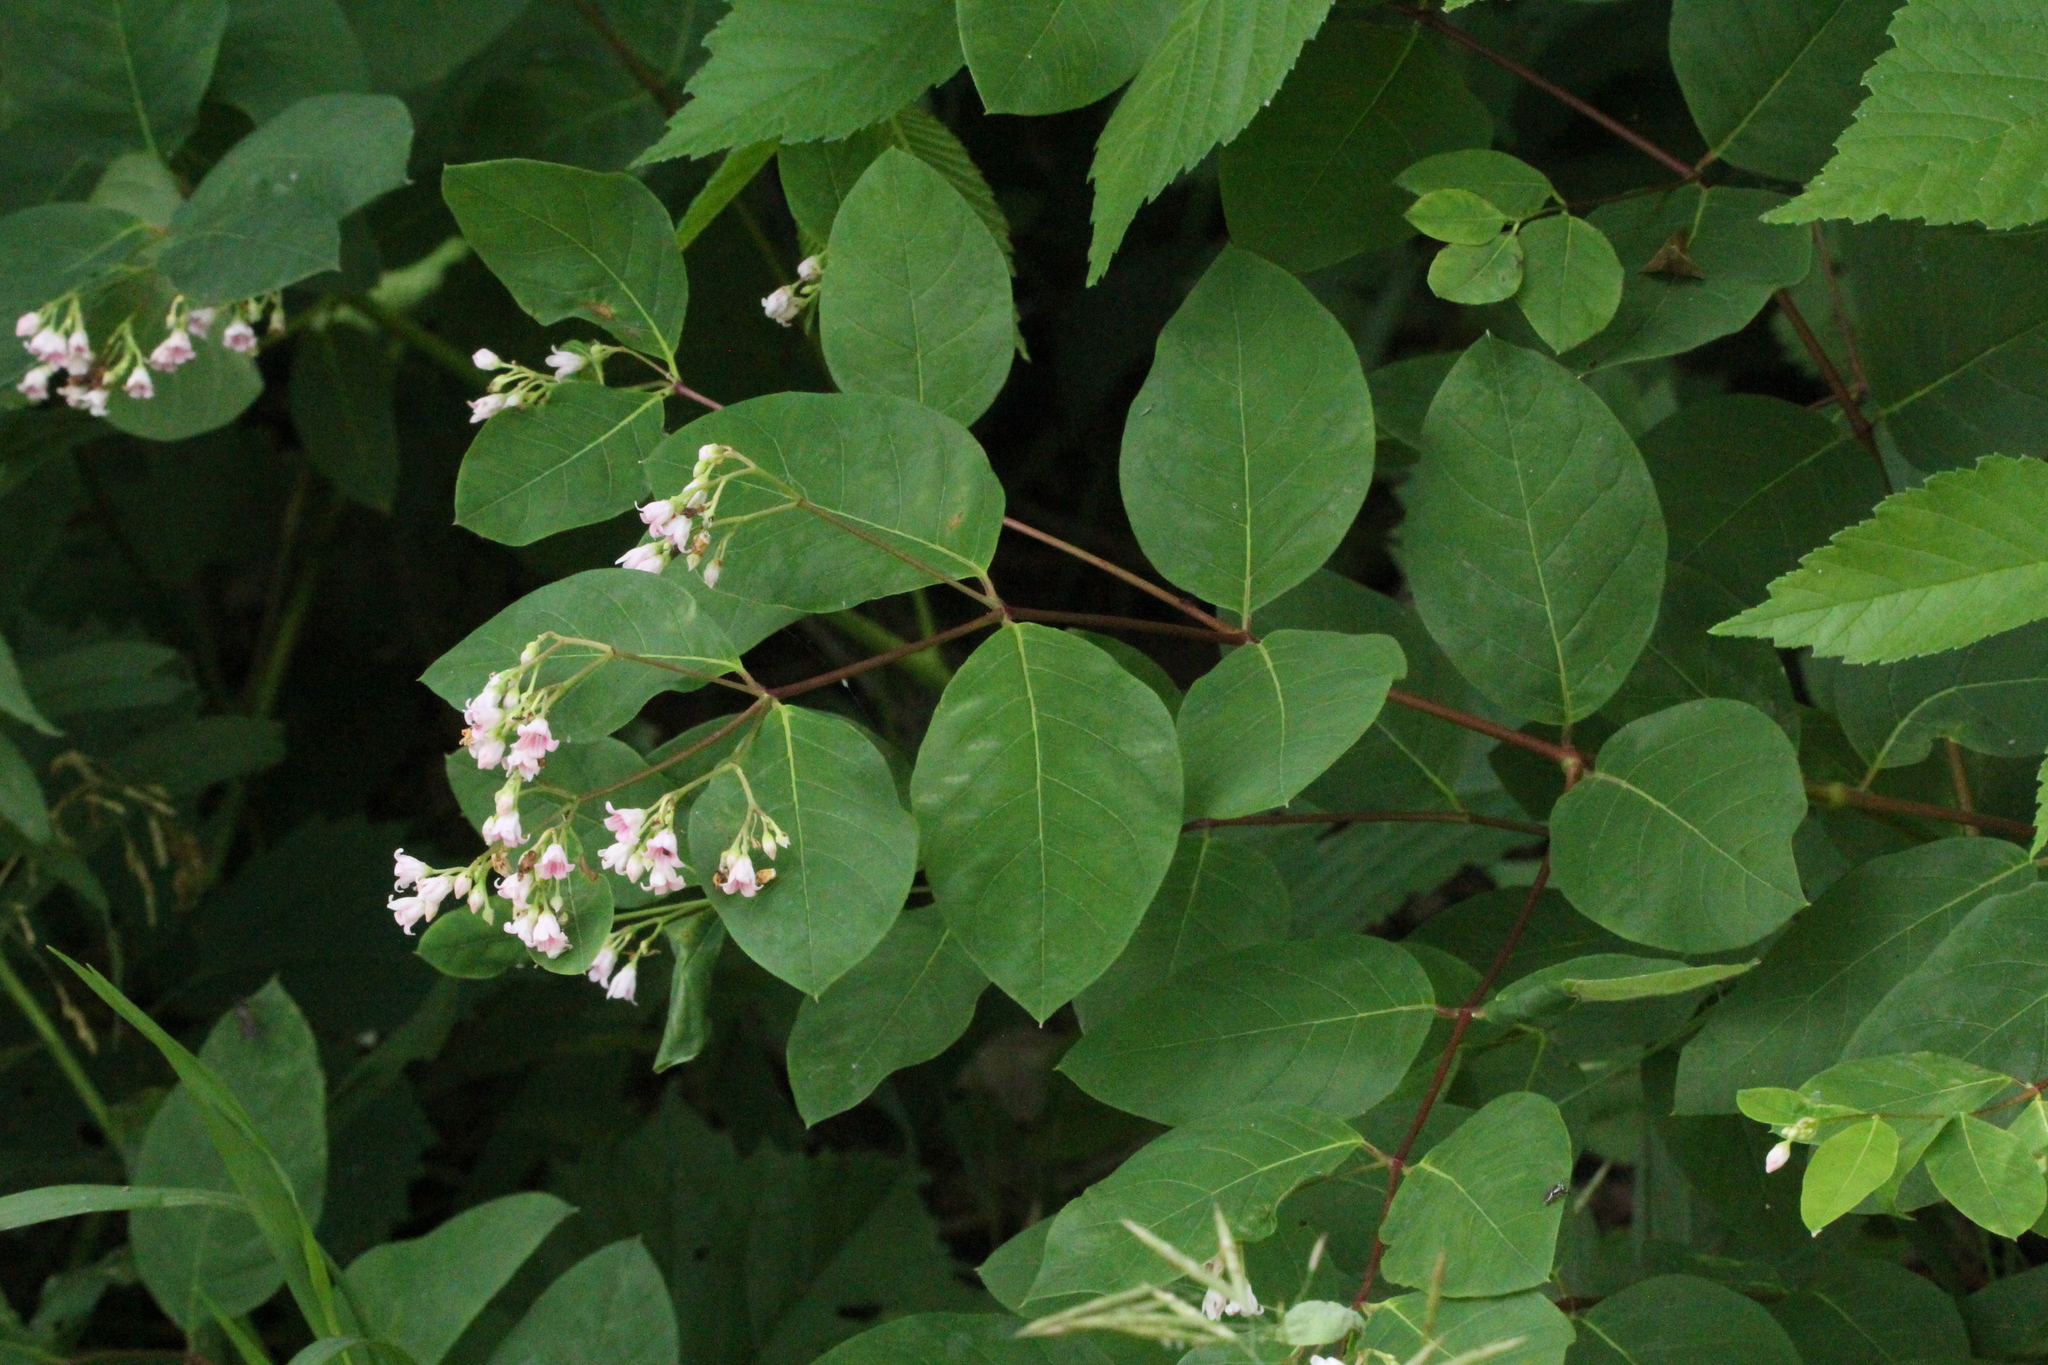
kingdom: Plantae
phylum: Tracheophyta
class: Magnoliopsida
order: Gentianales
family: Apocynaceae
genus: Apocynum
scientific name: Apocynum androsaemifolium
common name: Spreading dogbane
